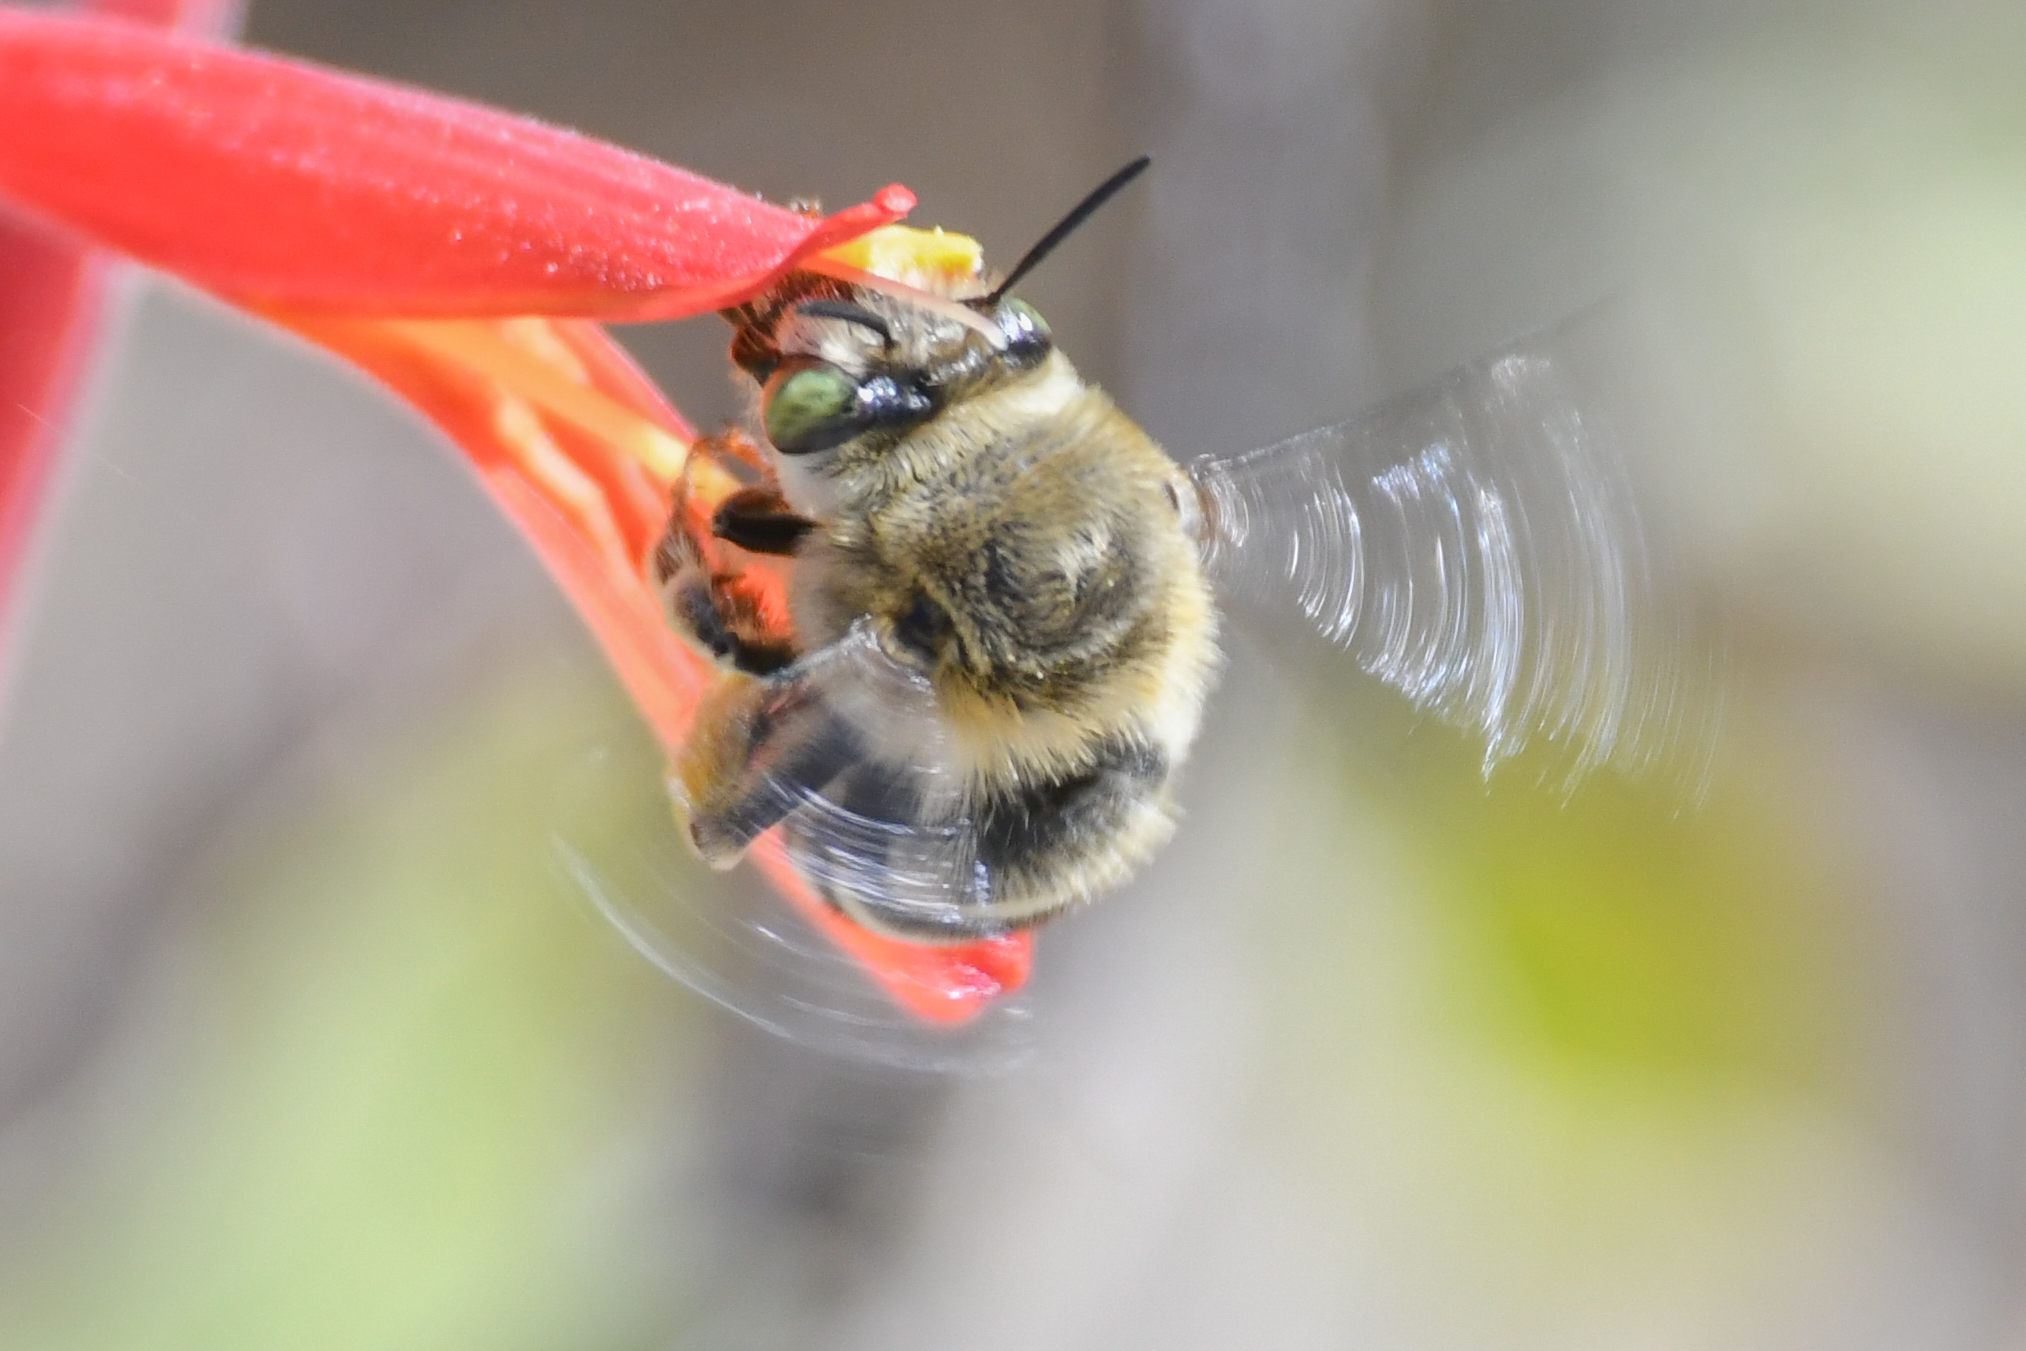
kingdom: Animalia
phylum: Arthropoda
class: Insecta
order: Hymenoptera
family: Apidae
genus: Anthophora
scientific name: Anthophora californica
